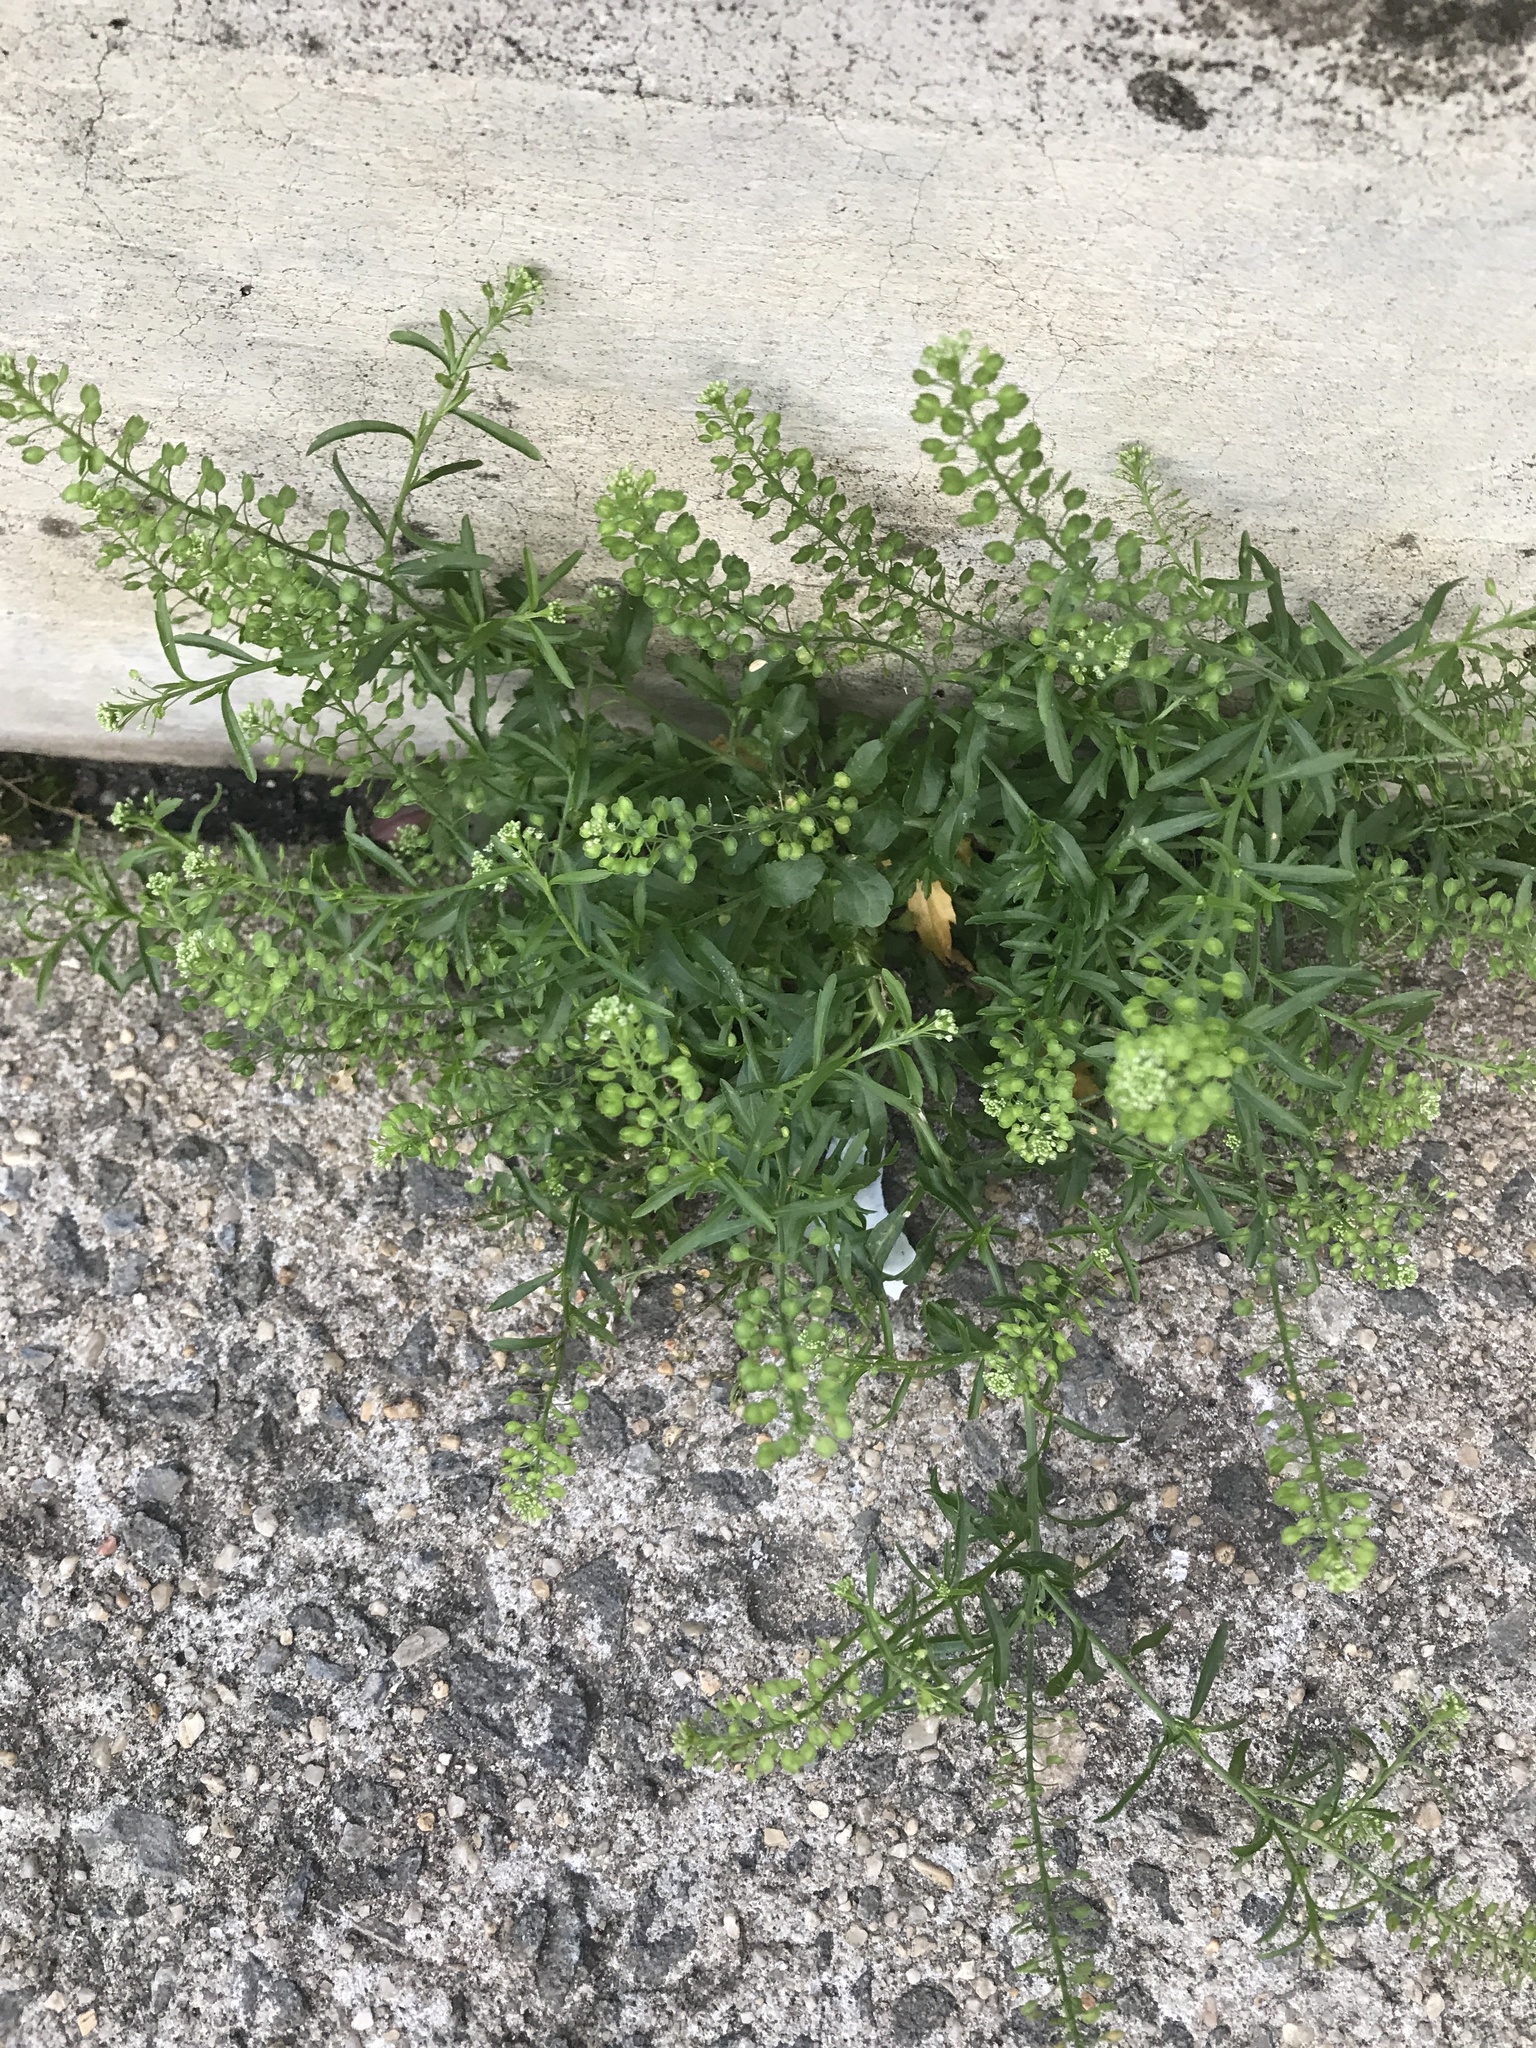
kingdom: Plantae
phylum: Tracheophyta
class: Magnoliopsida
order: Brassicales
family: Brassicaceae
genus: Lepidium
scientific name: Lepidium virginicum
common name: Least pepperwort
